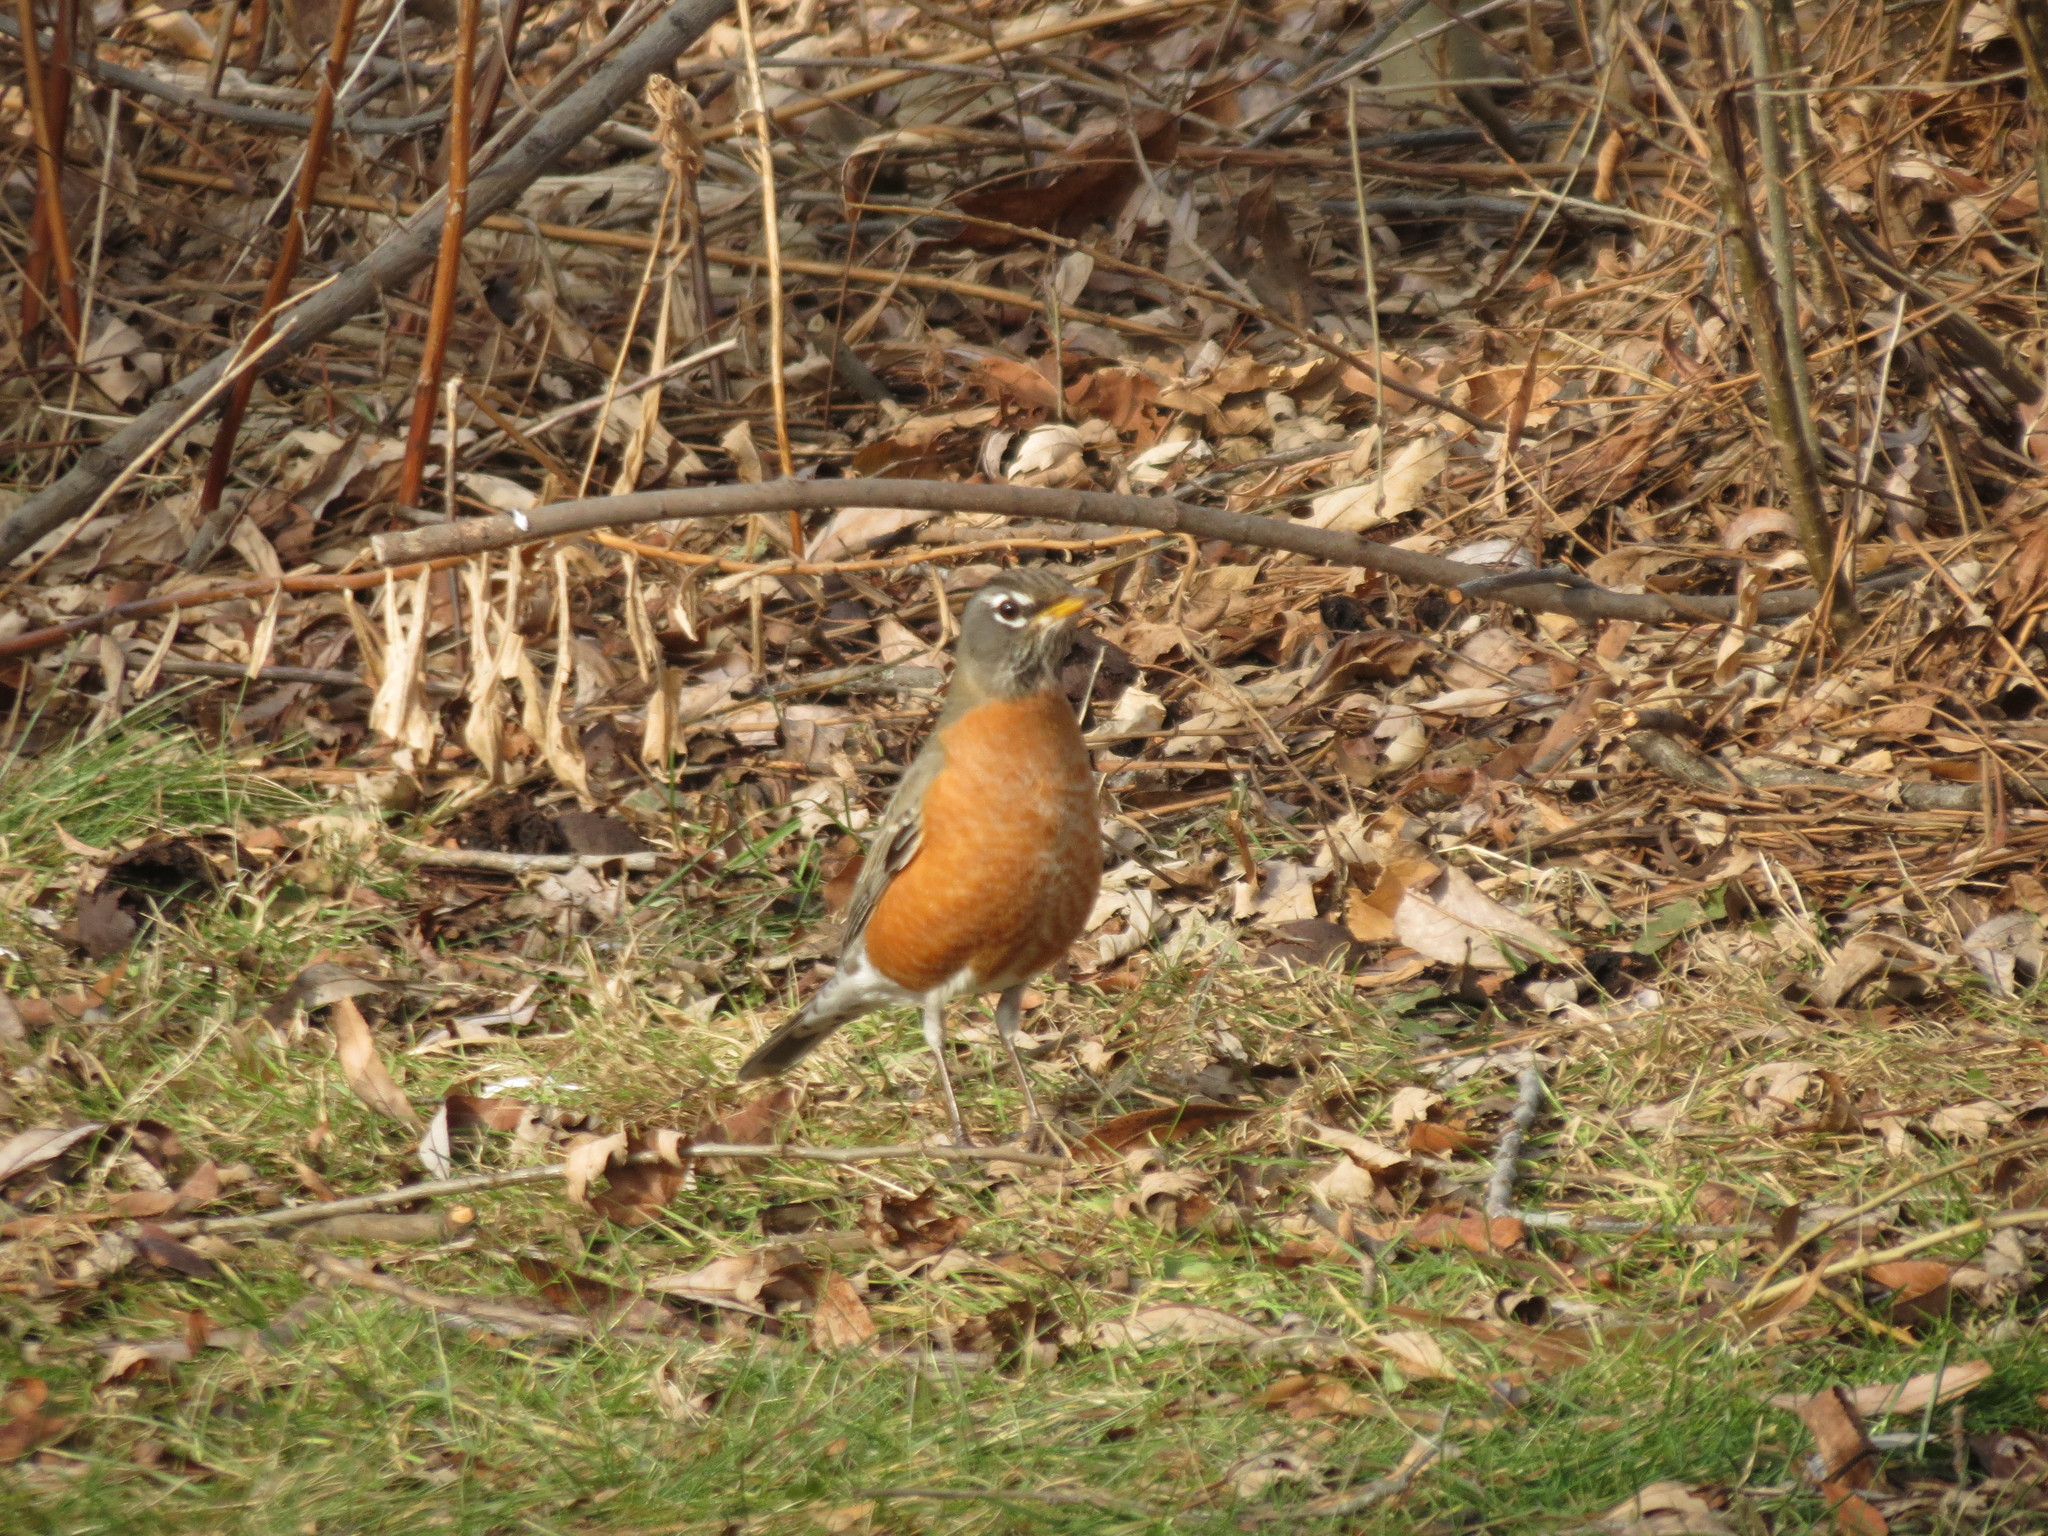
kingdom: Animalia
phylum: Chordata
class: Aves
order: Passeriformes
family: Turdidae
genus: Turdus
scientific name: Turdus migratorius
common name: American robin
